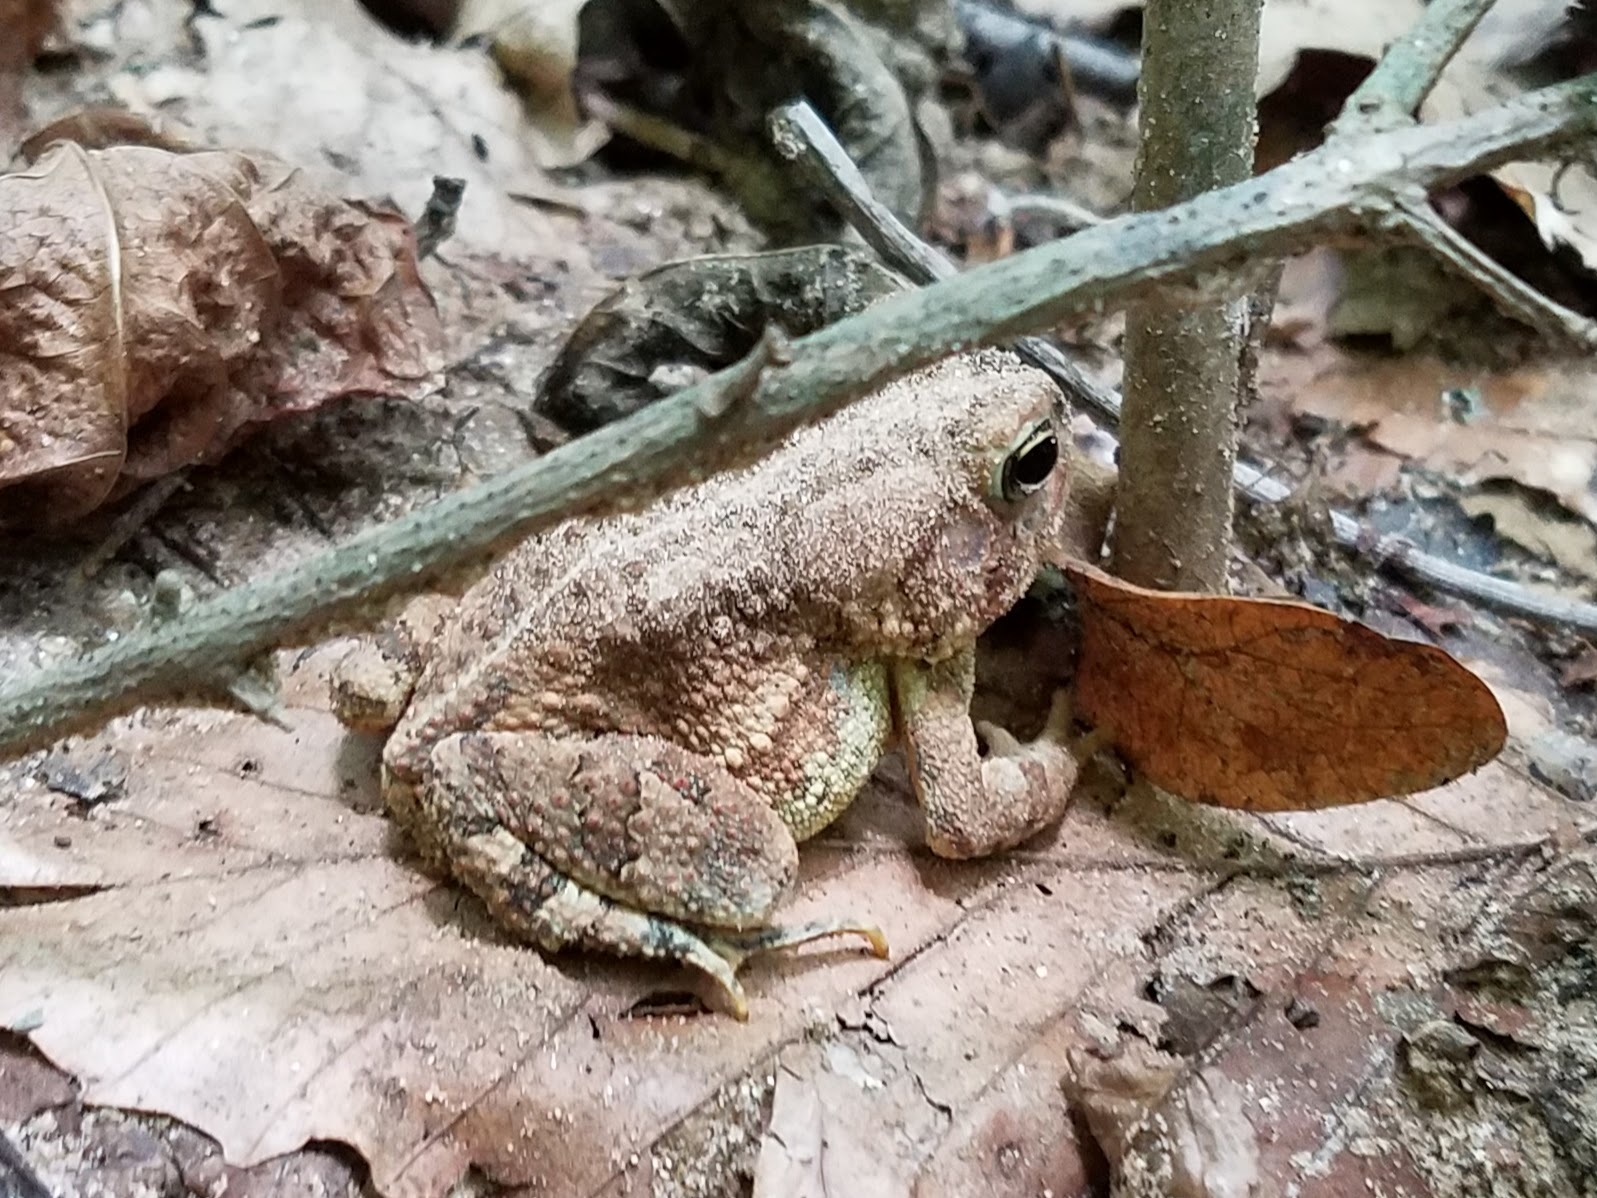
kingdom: Animalia
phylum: Chordata
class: Amphibia
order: Anura
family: Bufonidae
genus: Anaxyrus
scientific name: Anaxyrus fowleri
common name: Fowler's toad
